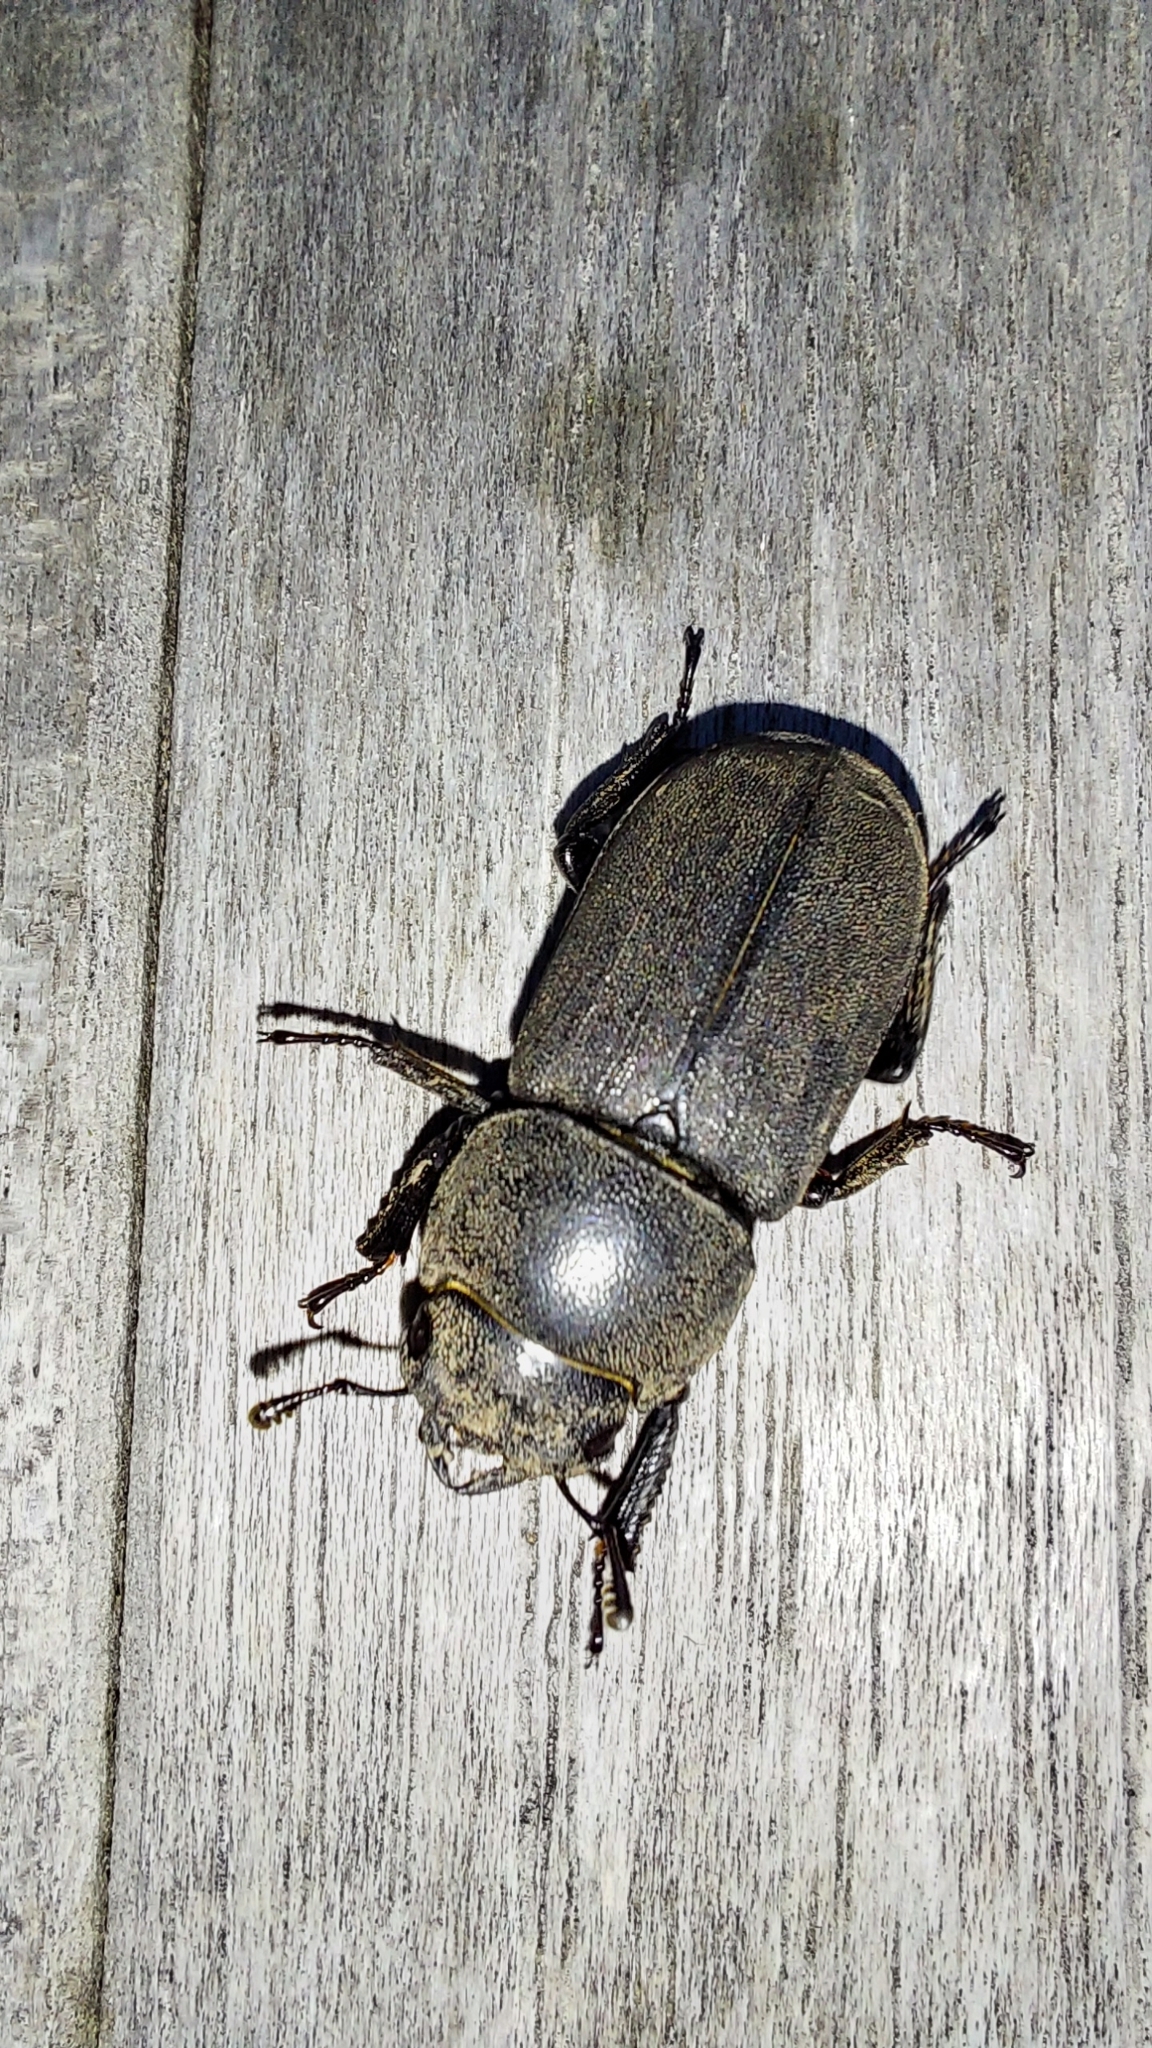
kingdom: Animalia
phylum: Arthropoda
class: Insecta
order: Coleoptera
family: Lucanidae
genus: Dorcus
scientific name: Dorcus parallelipipedus
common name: Lesser stag beetle
